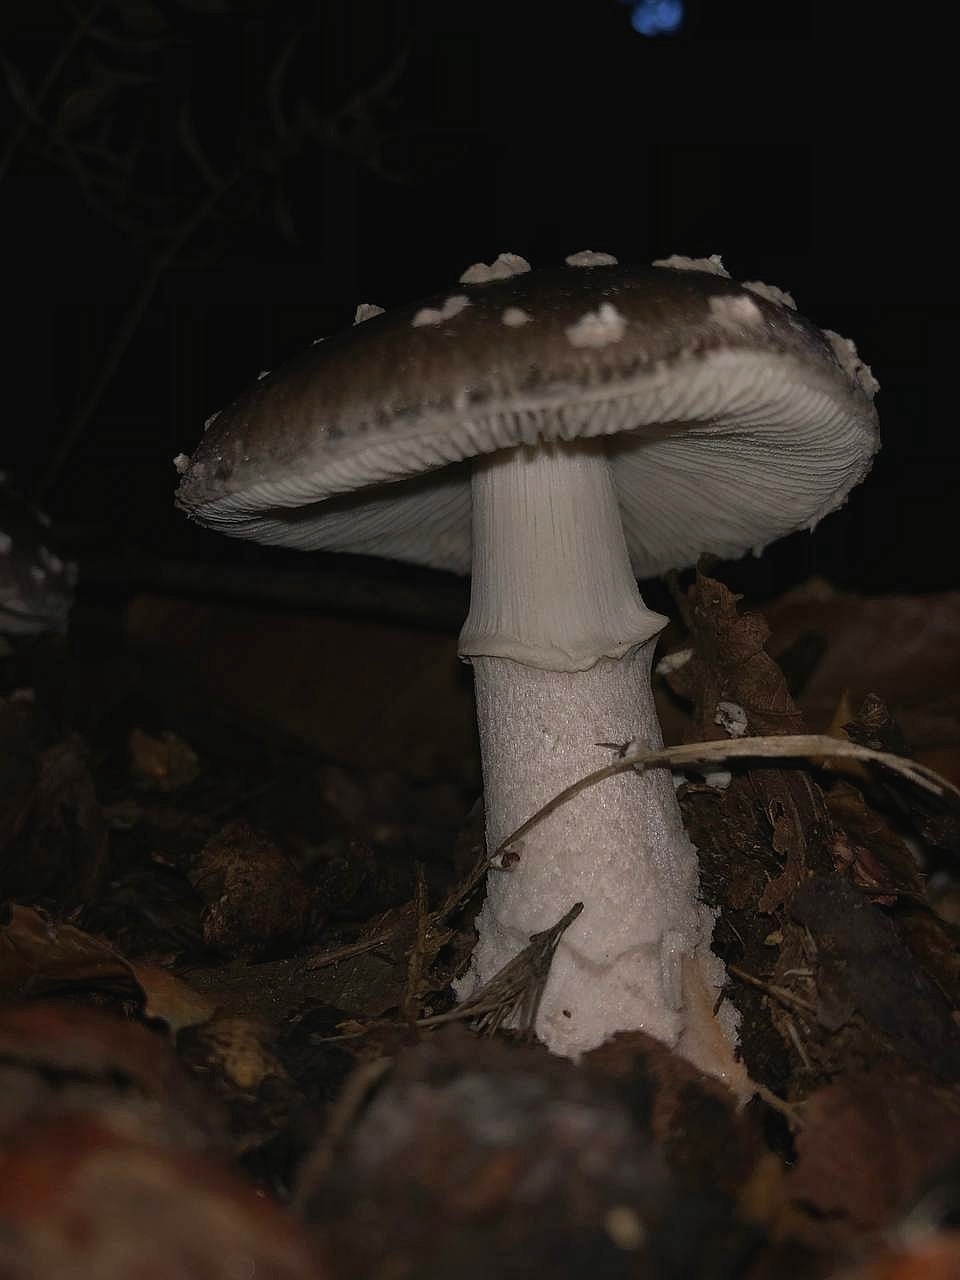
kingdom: Fungi
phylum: Basidiomycota
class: Agaricomycetes
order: Agaricales
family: Amanitaceae
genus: Amanita
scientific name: Amanita pantherina
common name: Panthercap
